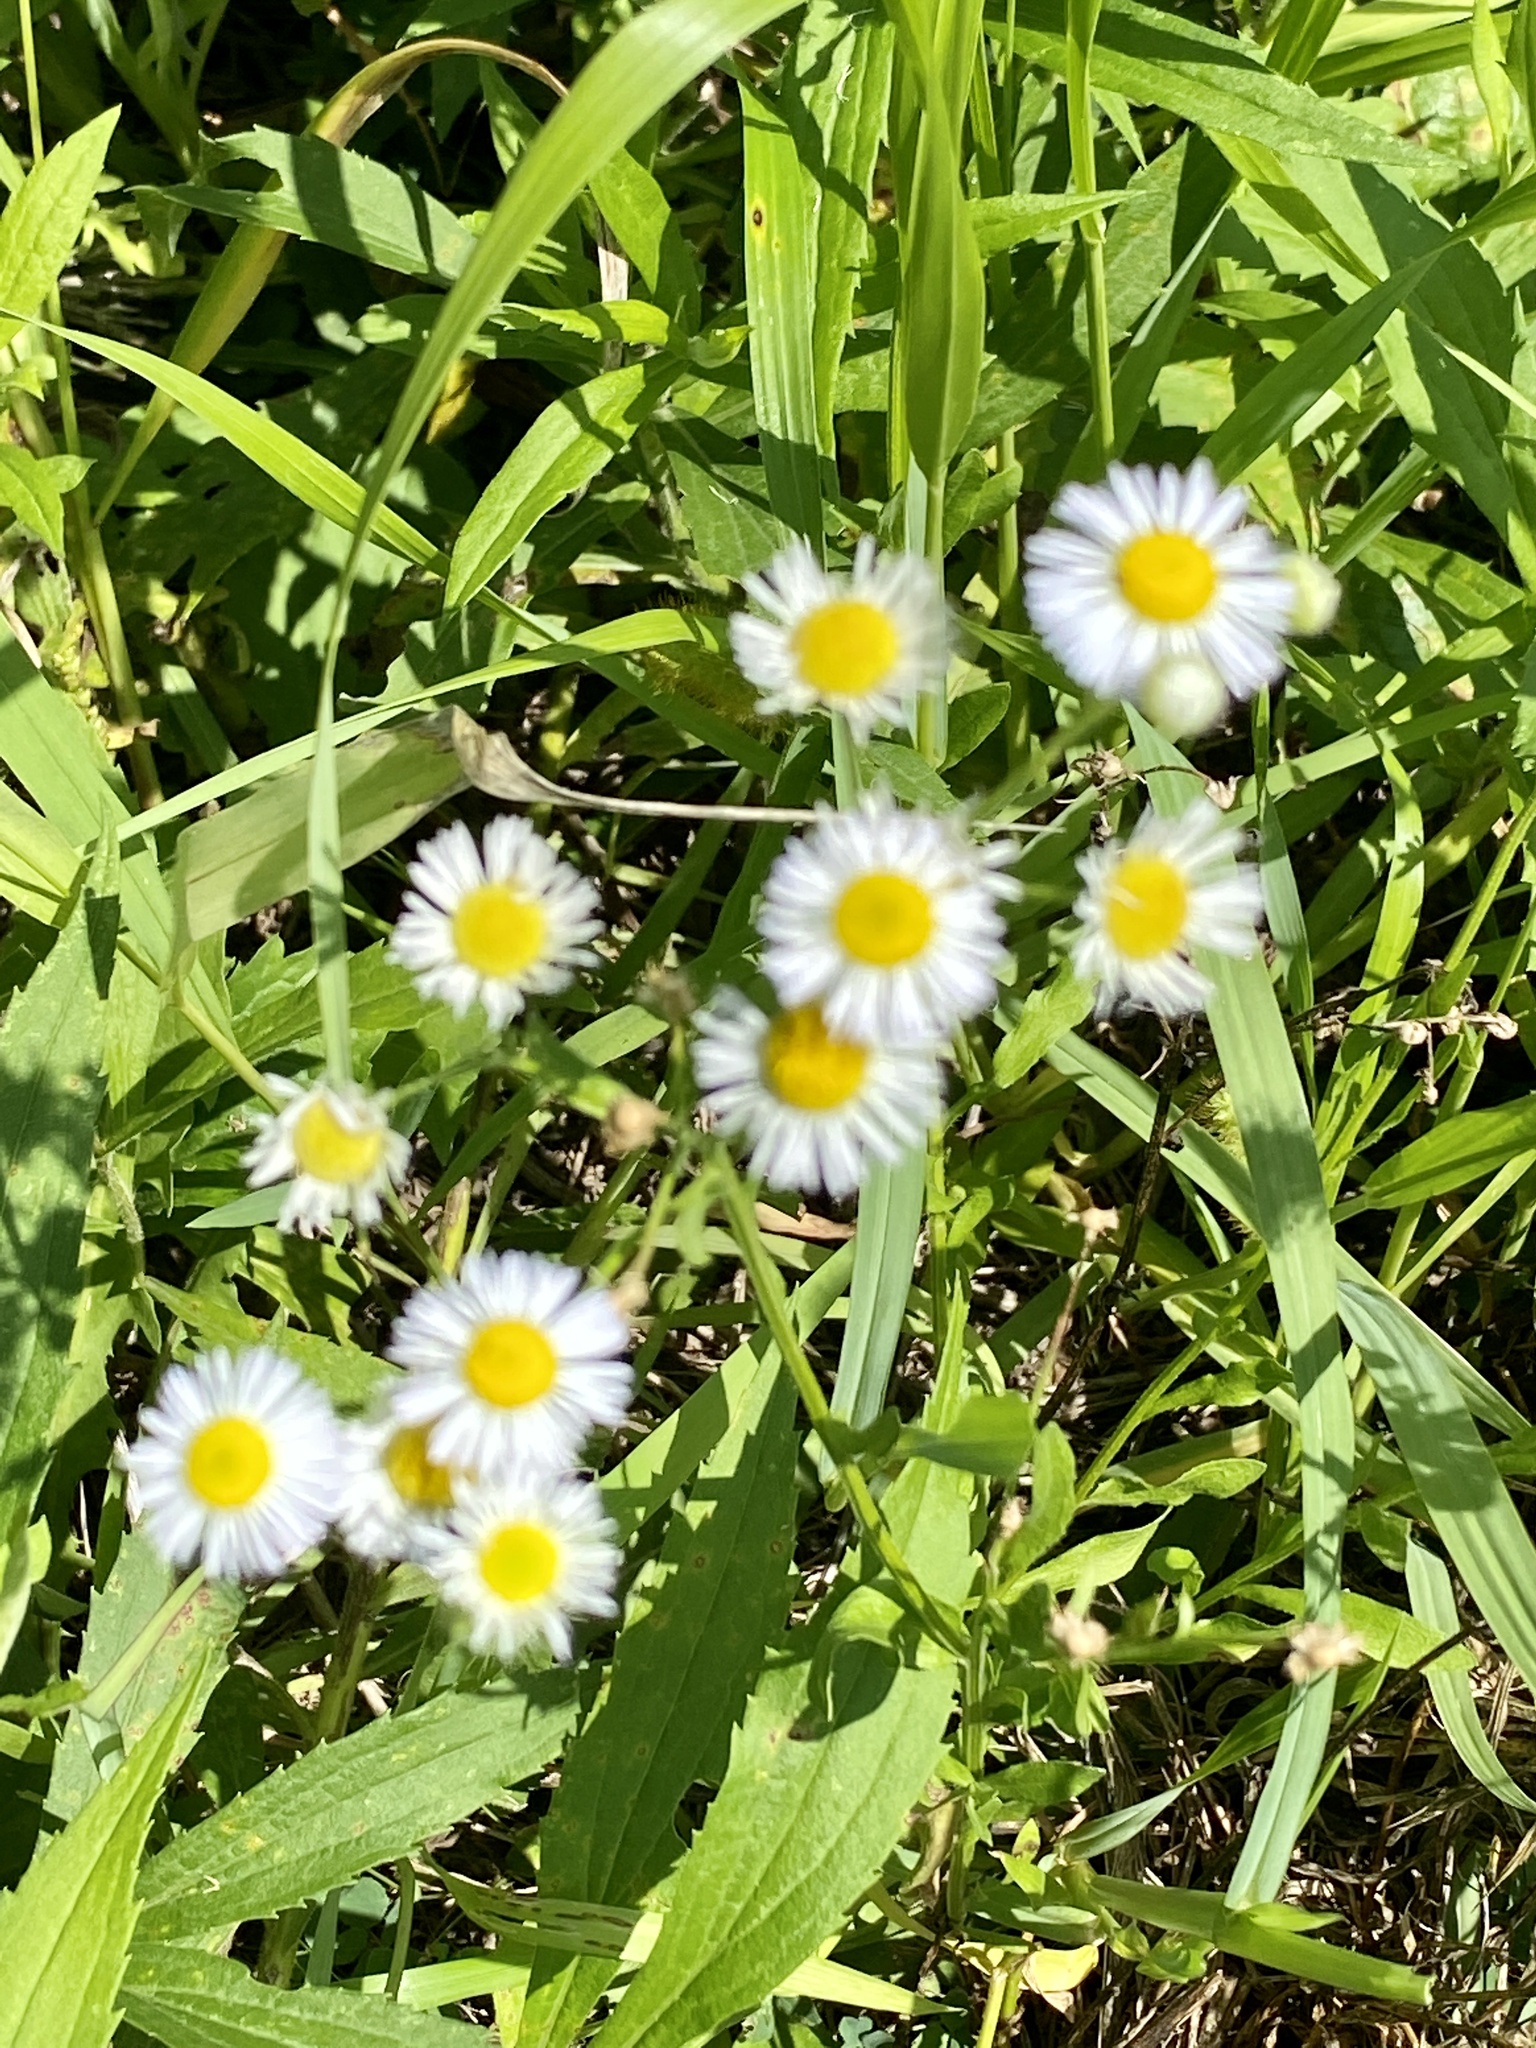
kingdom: Plantae
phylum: Tracheophyta
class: Magnoliopsida
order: Asterales
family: Asteraceae
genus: Erigeron
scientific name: Erigeron strigosus
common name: Common eastern fleabane
